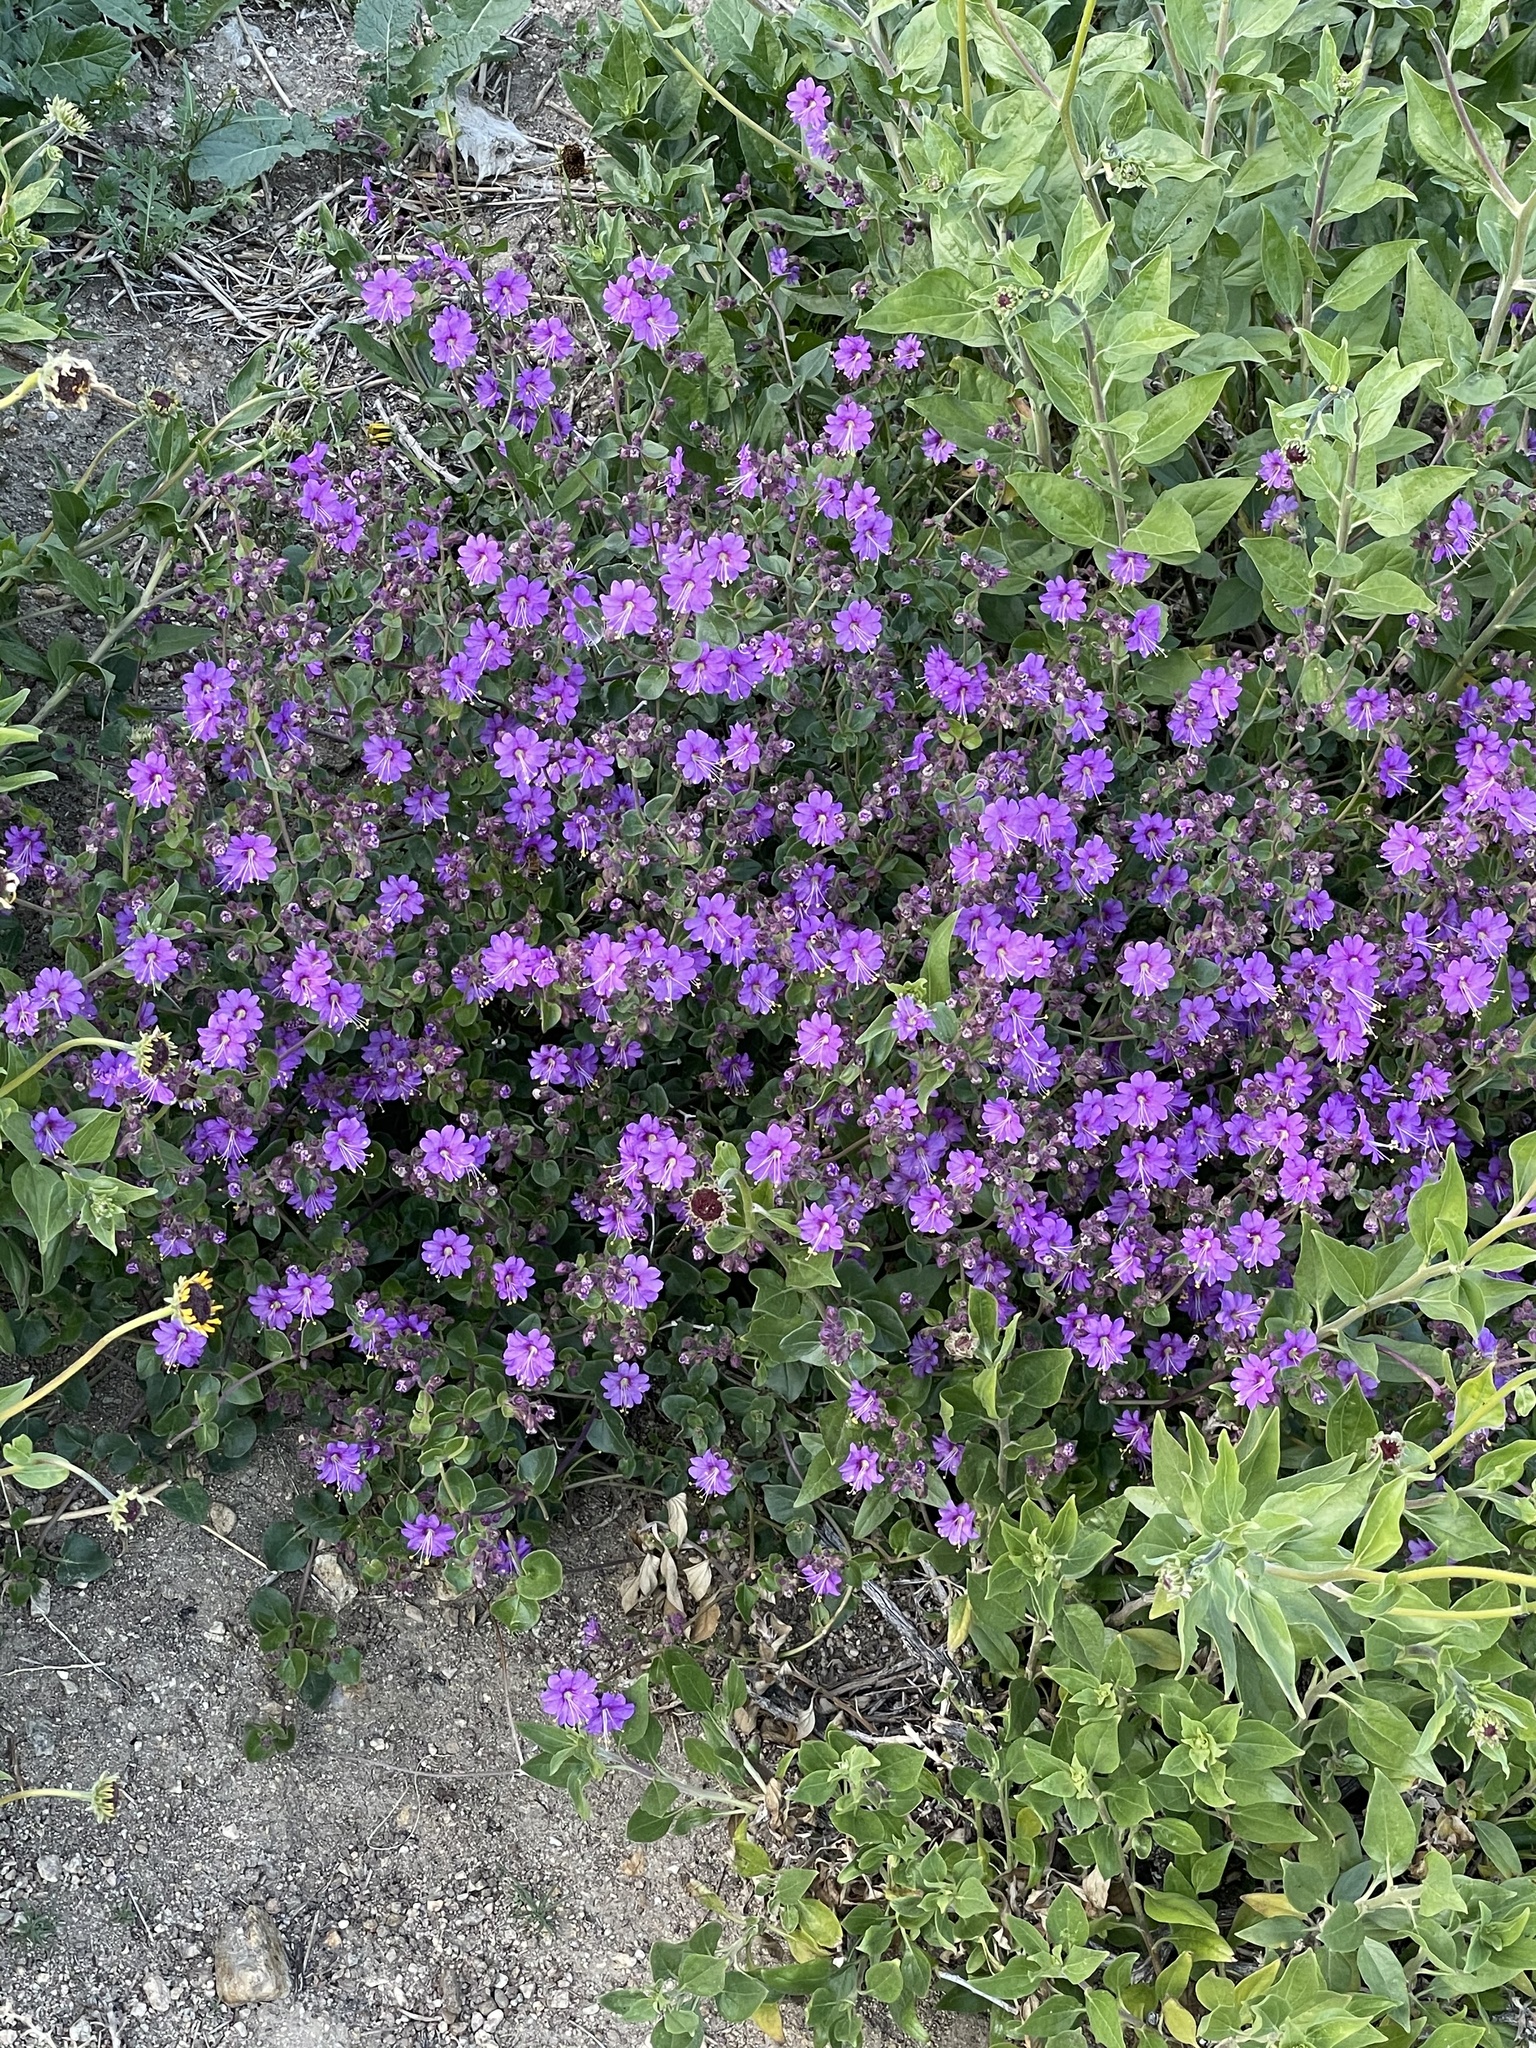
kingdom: Plantae
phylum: Tracheophyta
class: Magnoliopsida
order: Caryophyllales
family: Nyctaginaceae
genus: Mirabilis
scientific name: Mirabilis laevis
